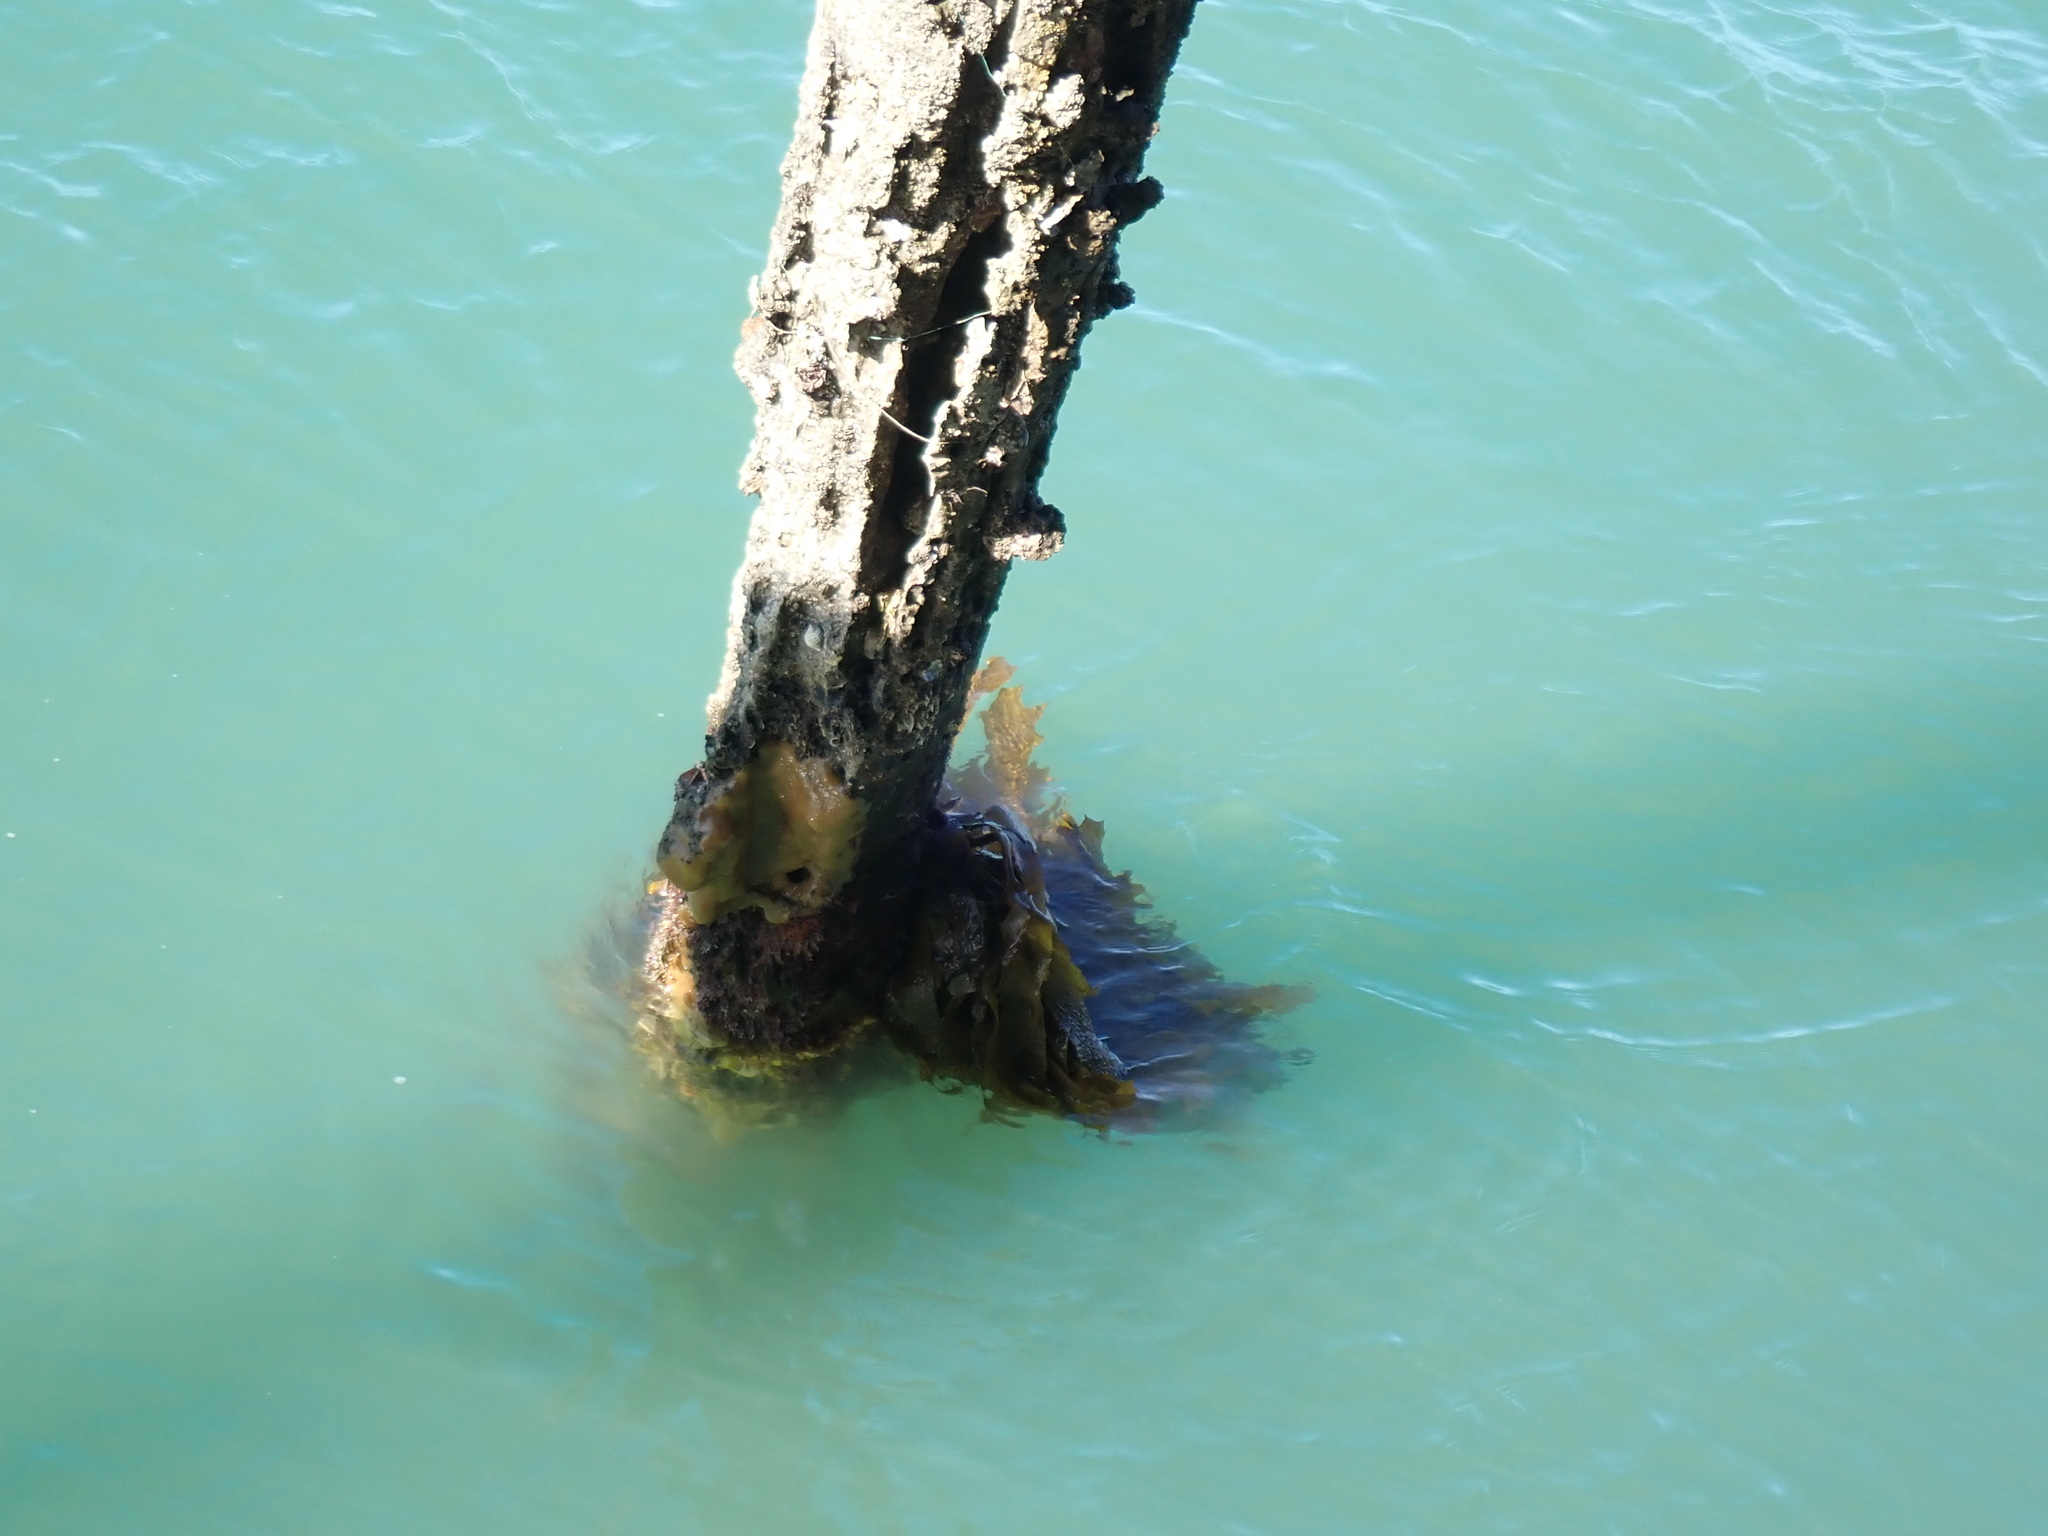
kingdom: Chromista
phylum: Ochrophyta
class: Phaeophyceae
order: Laminariales
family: Lessoniaceae
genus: Ecklonia
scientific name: Ecklonia radiata
